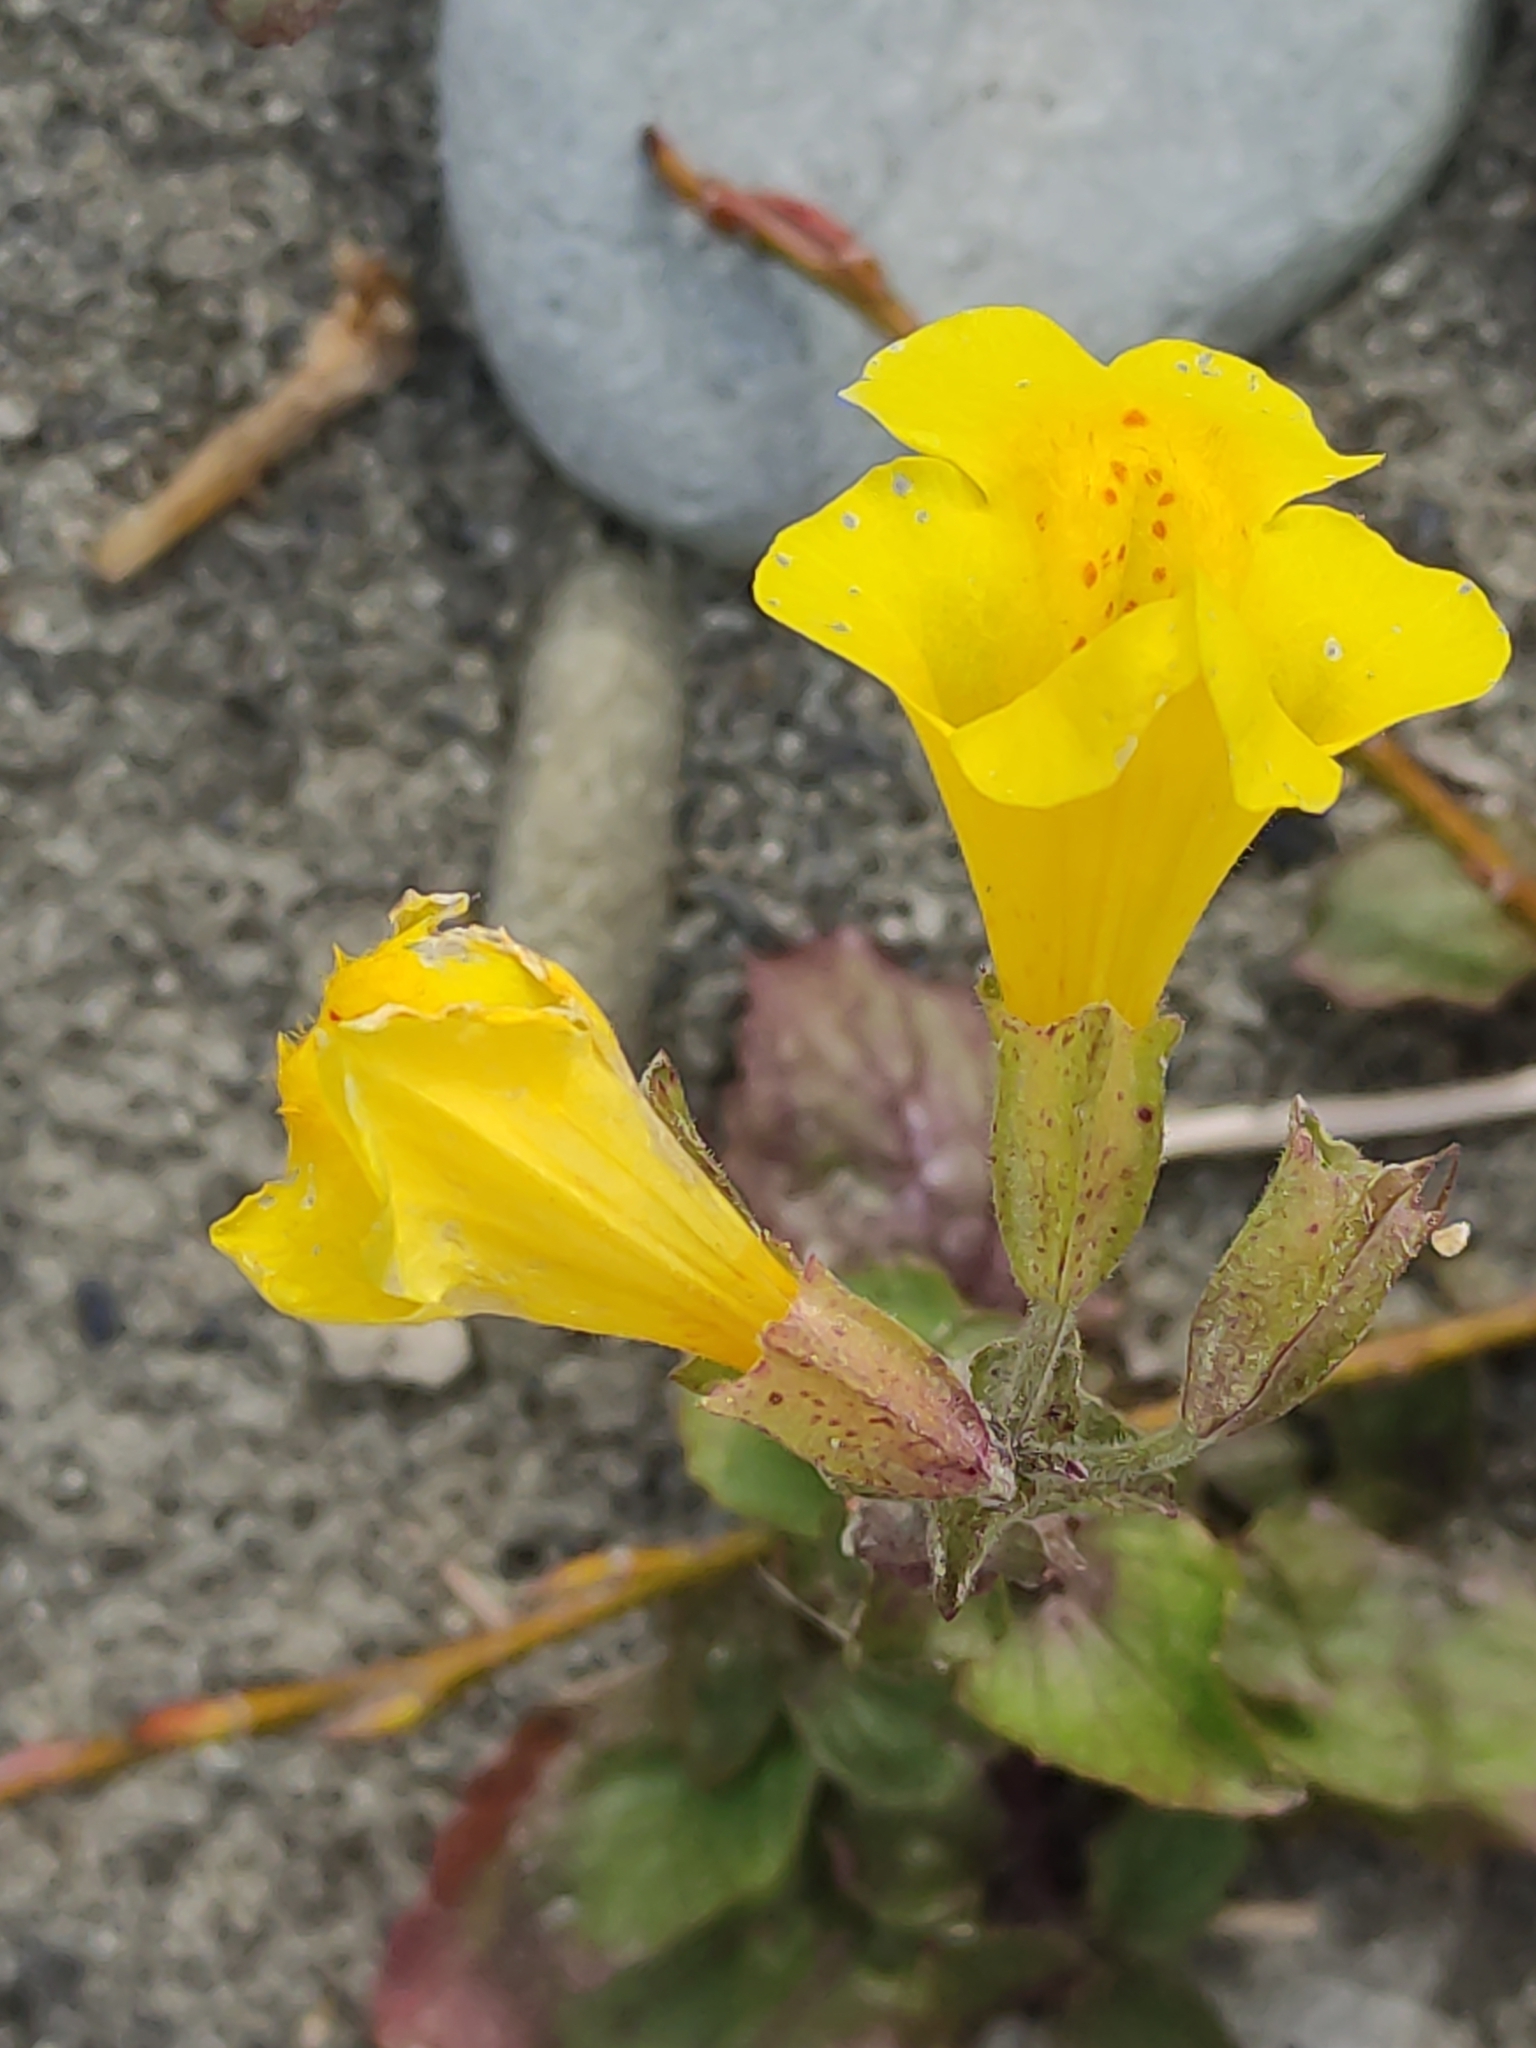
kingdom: Plantae
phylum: Tracheophyta
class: Magnoliopsida
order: Lamiales
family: Phrymaceae
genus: Erythranthe
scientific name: Erythranthe guttata
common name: Monkeyflower
